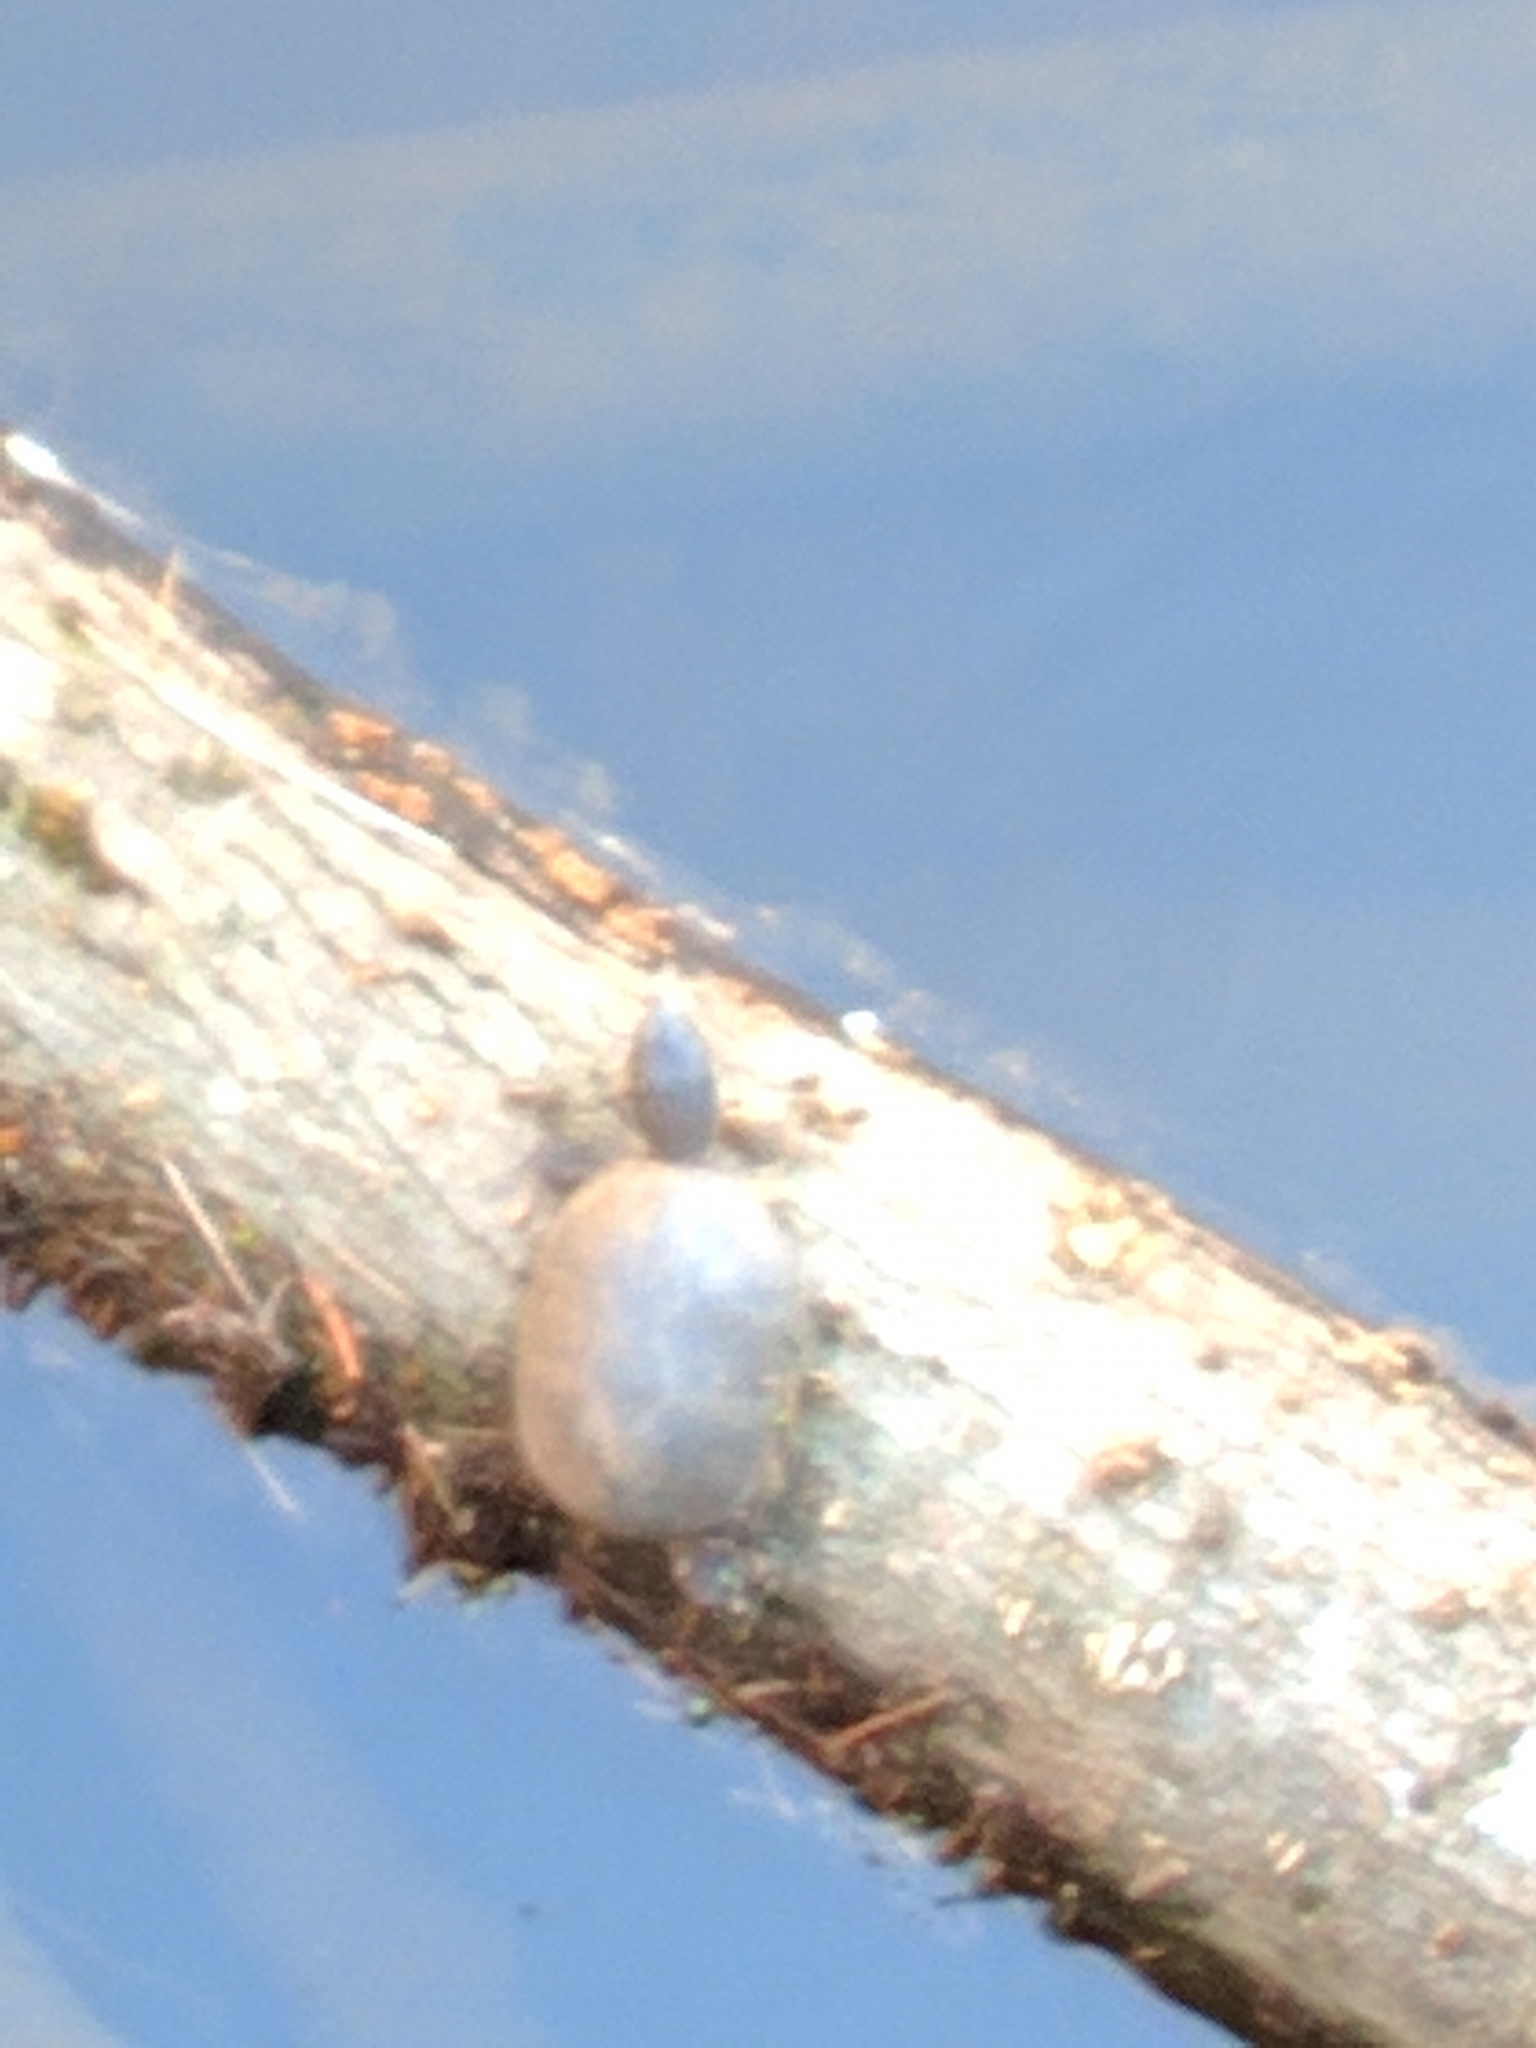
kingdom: Animalia
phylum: Chordata
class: Testudines
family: Kinosternidae
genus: Sternotherus
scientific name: Sternotherus odoratus
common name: Common musk turtle
